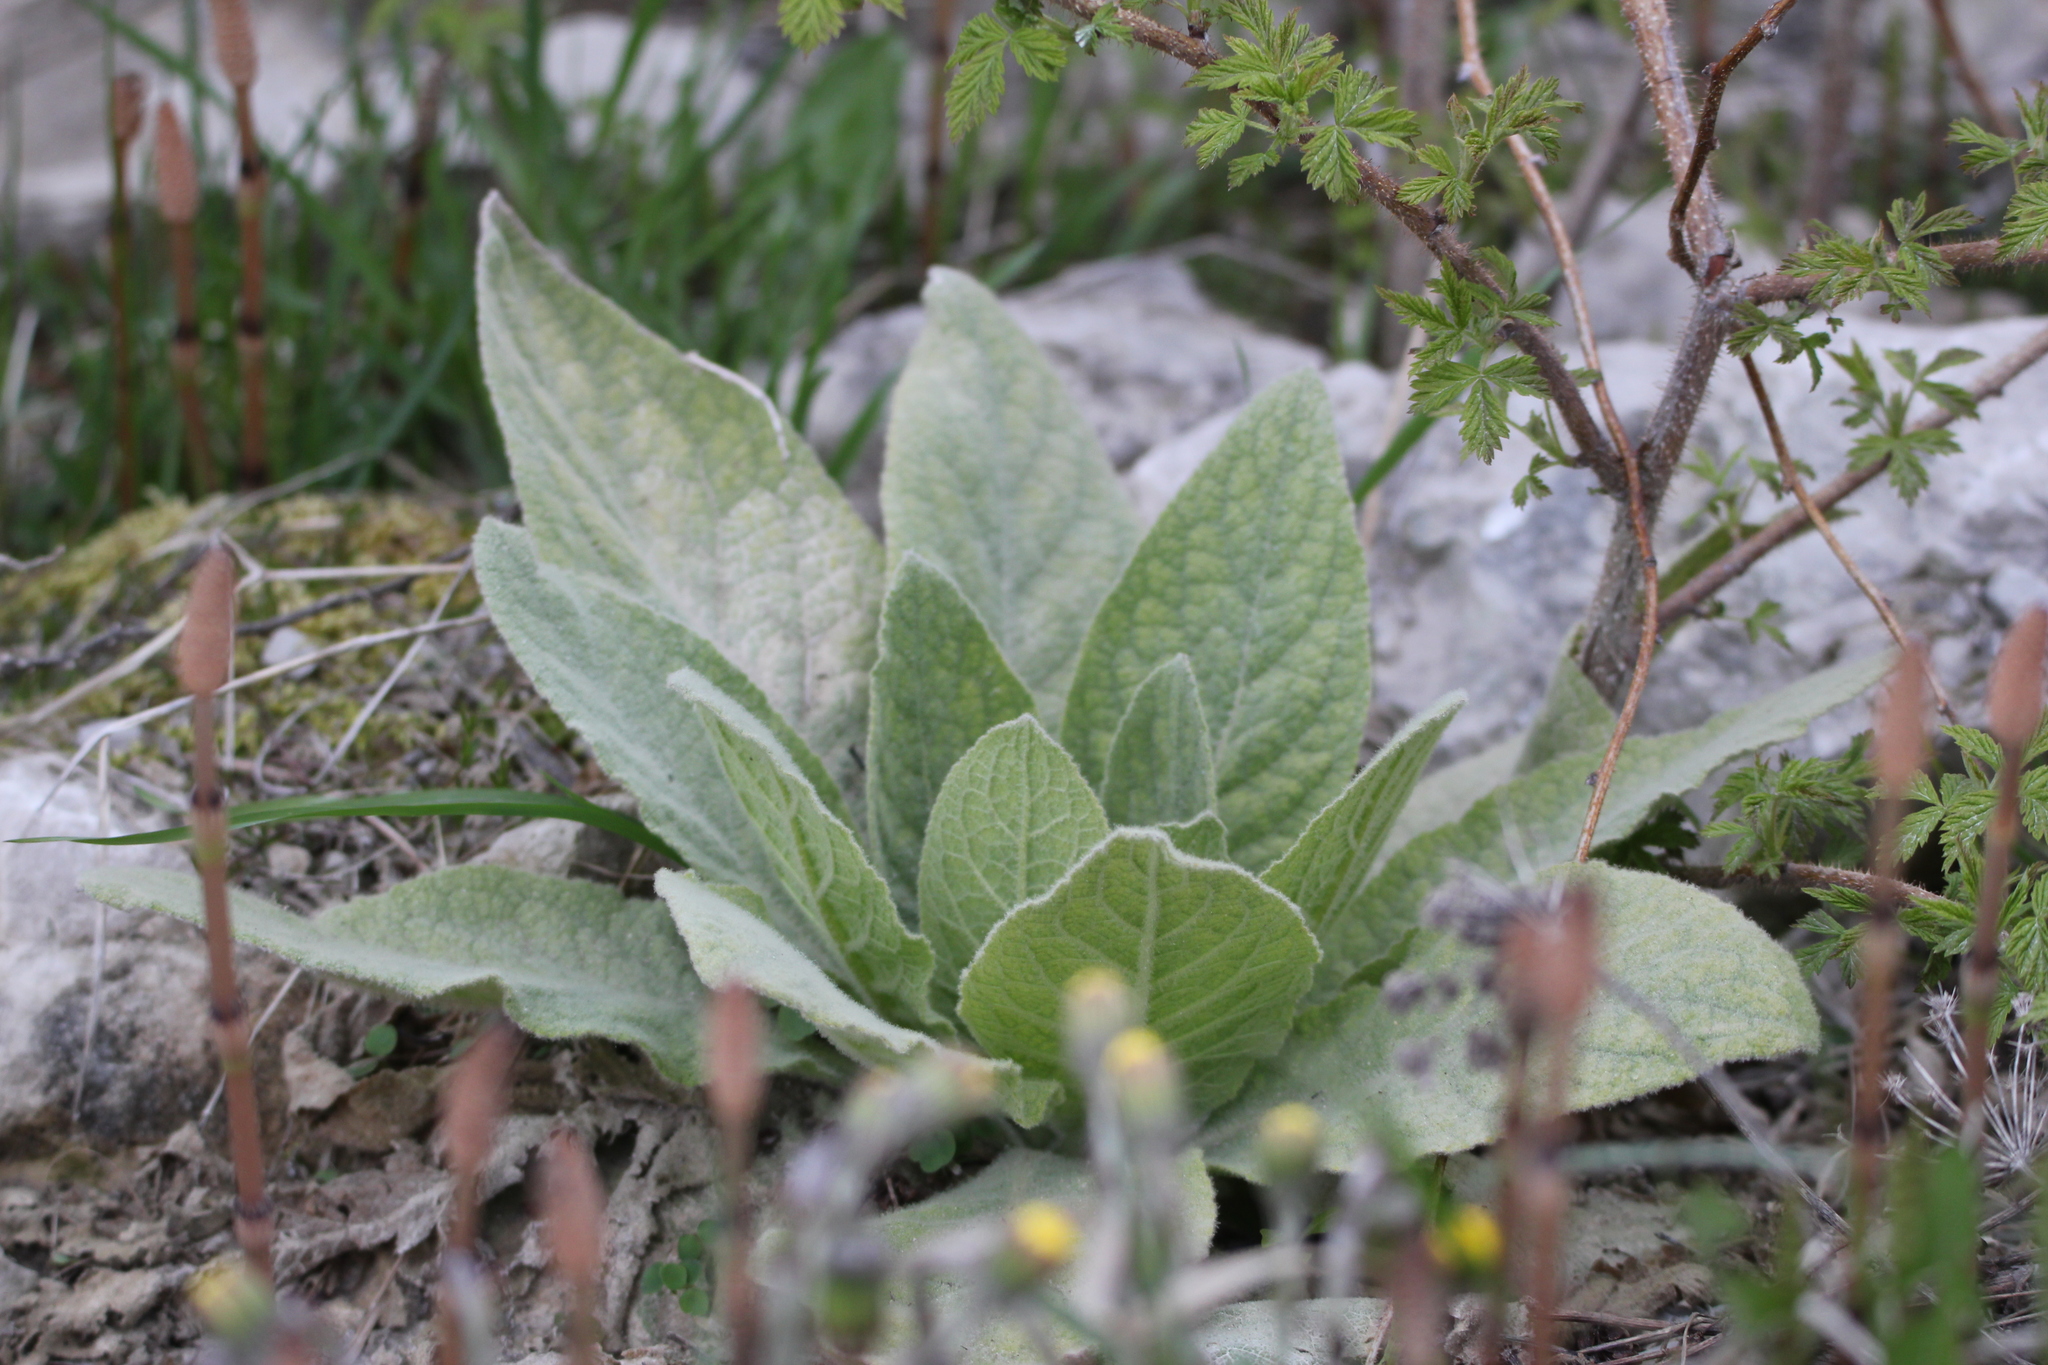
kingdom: Plantae
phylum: Tracheophyta
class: Magnoliopsida
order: Lamiales
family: Scrophulariaceae
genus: Verbascum
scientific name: Verbascum thapsus
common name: Common mullein
